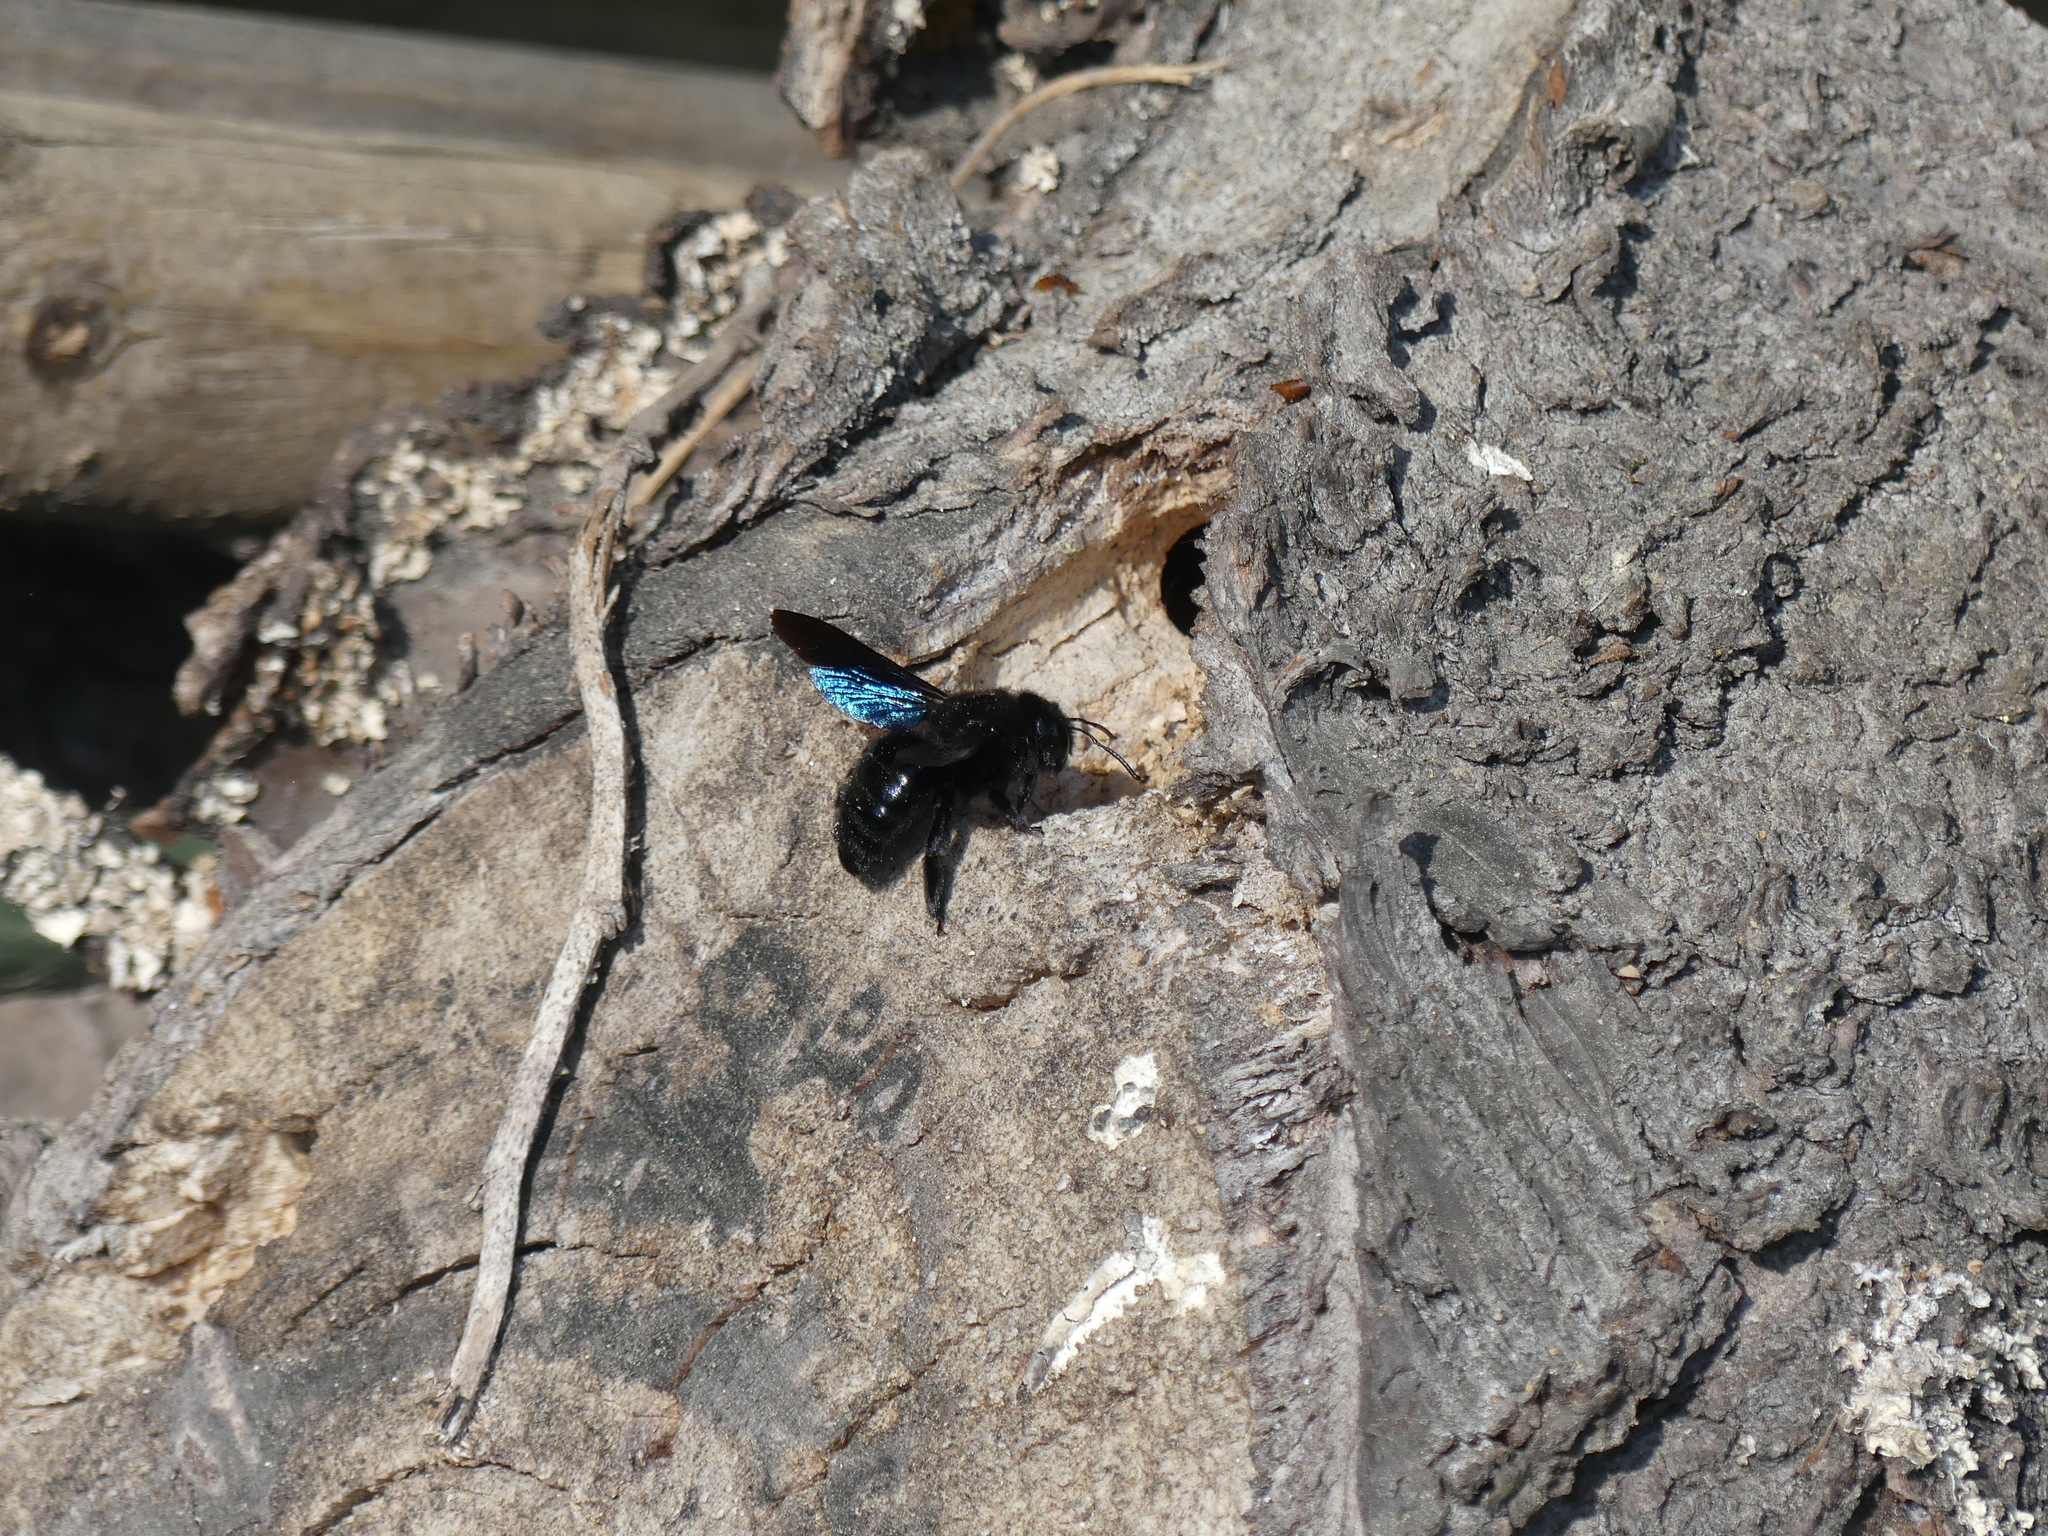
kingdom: Animalia
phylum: Arthropoda
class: Insecta
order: Hymenoptera
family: Apidae
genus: Xylocopa
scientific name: Xylocopa valga
